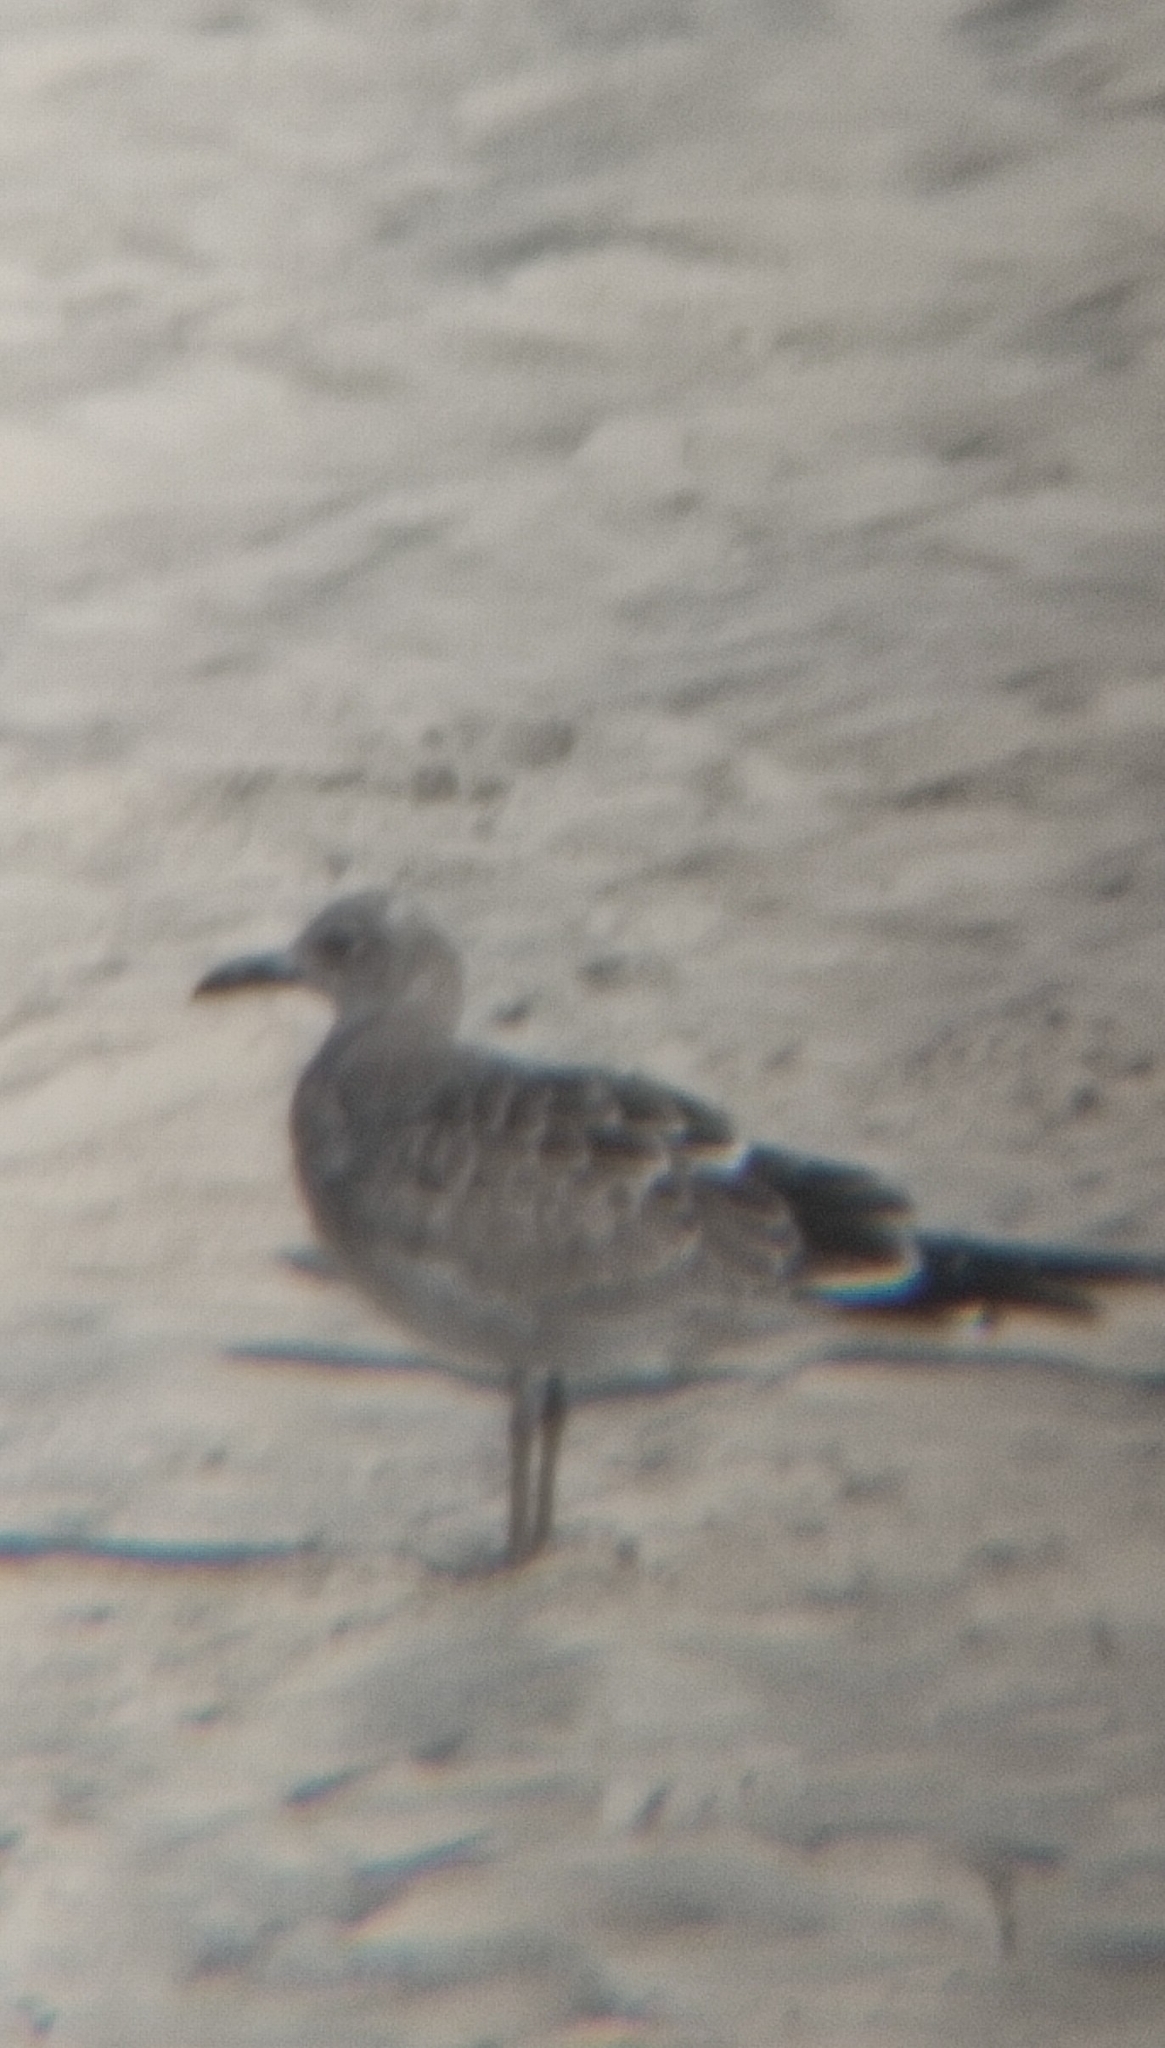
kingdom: Animalia
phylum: Chordata
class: Aves
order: Charadriiformes
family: Laridae
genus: Leucophaeus
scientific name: Leucophaeus atricilla
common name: Laughing gull
